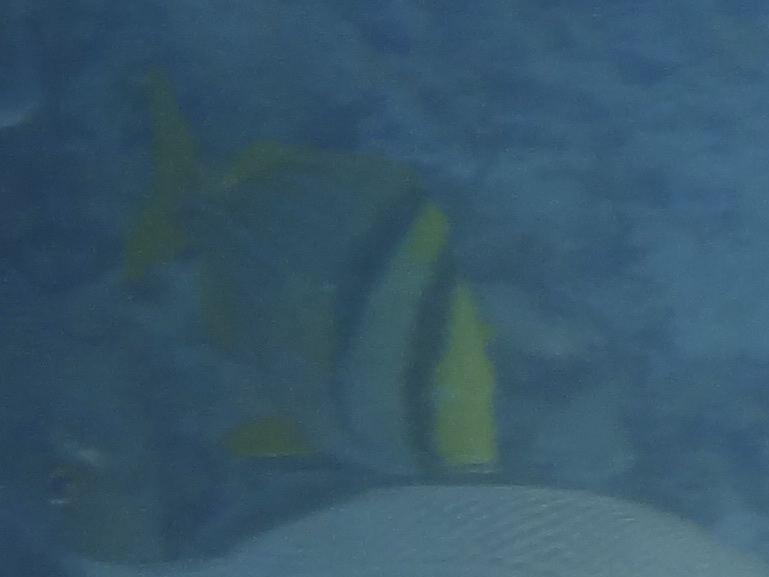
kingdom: Animalia
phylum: Chordata
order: Perciformes
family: Haemulidae
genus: Anisotremus
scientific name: Anisotremus virginicus
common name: Porkfish
